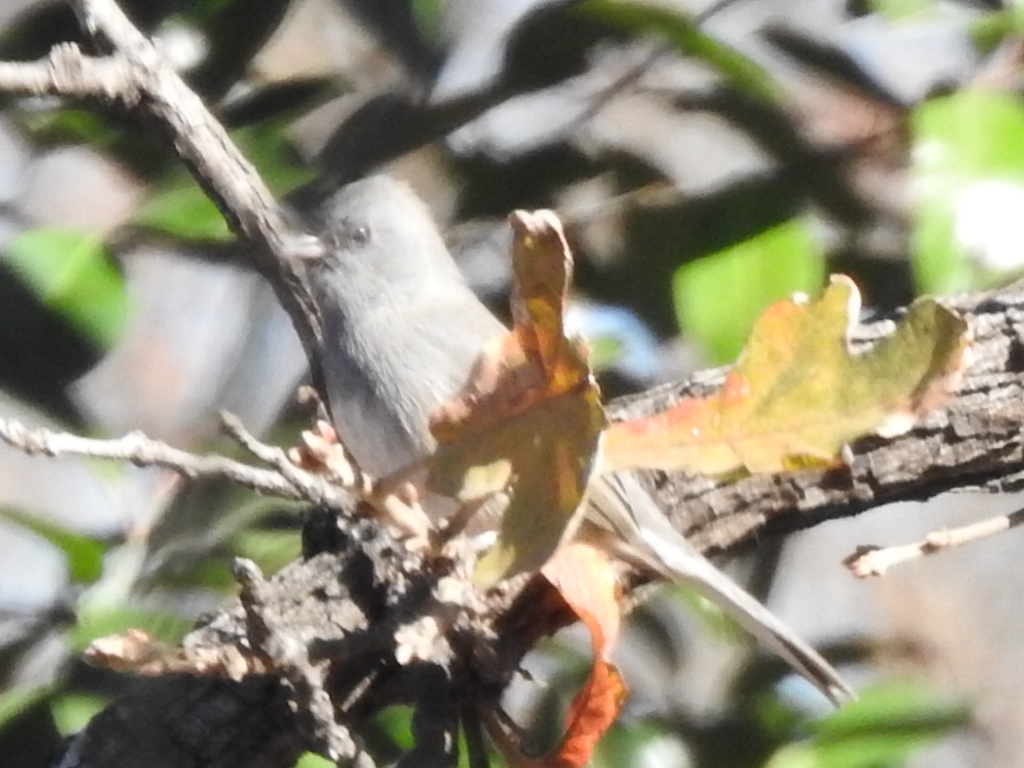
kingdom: Animalia
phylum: Chordata
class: Aves
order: Passeriformes
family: Passerellidae
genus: Junco
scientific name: Junco hyemalis
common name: Dark-eyed junco
